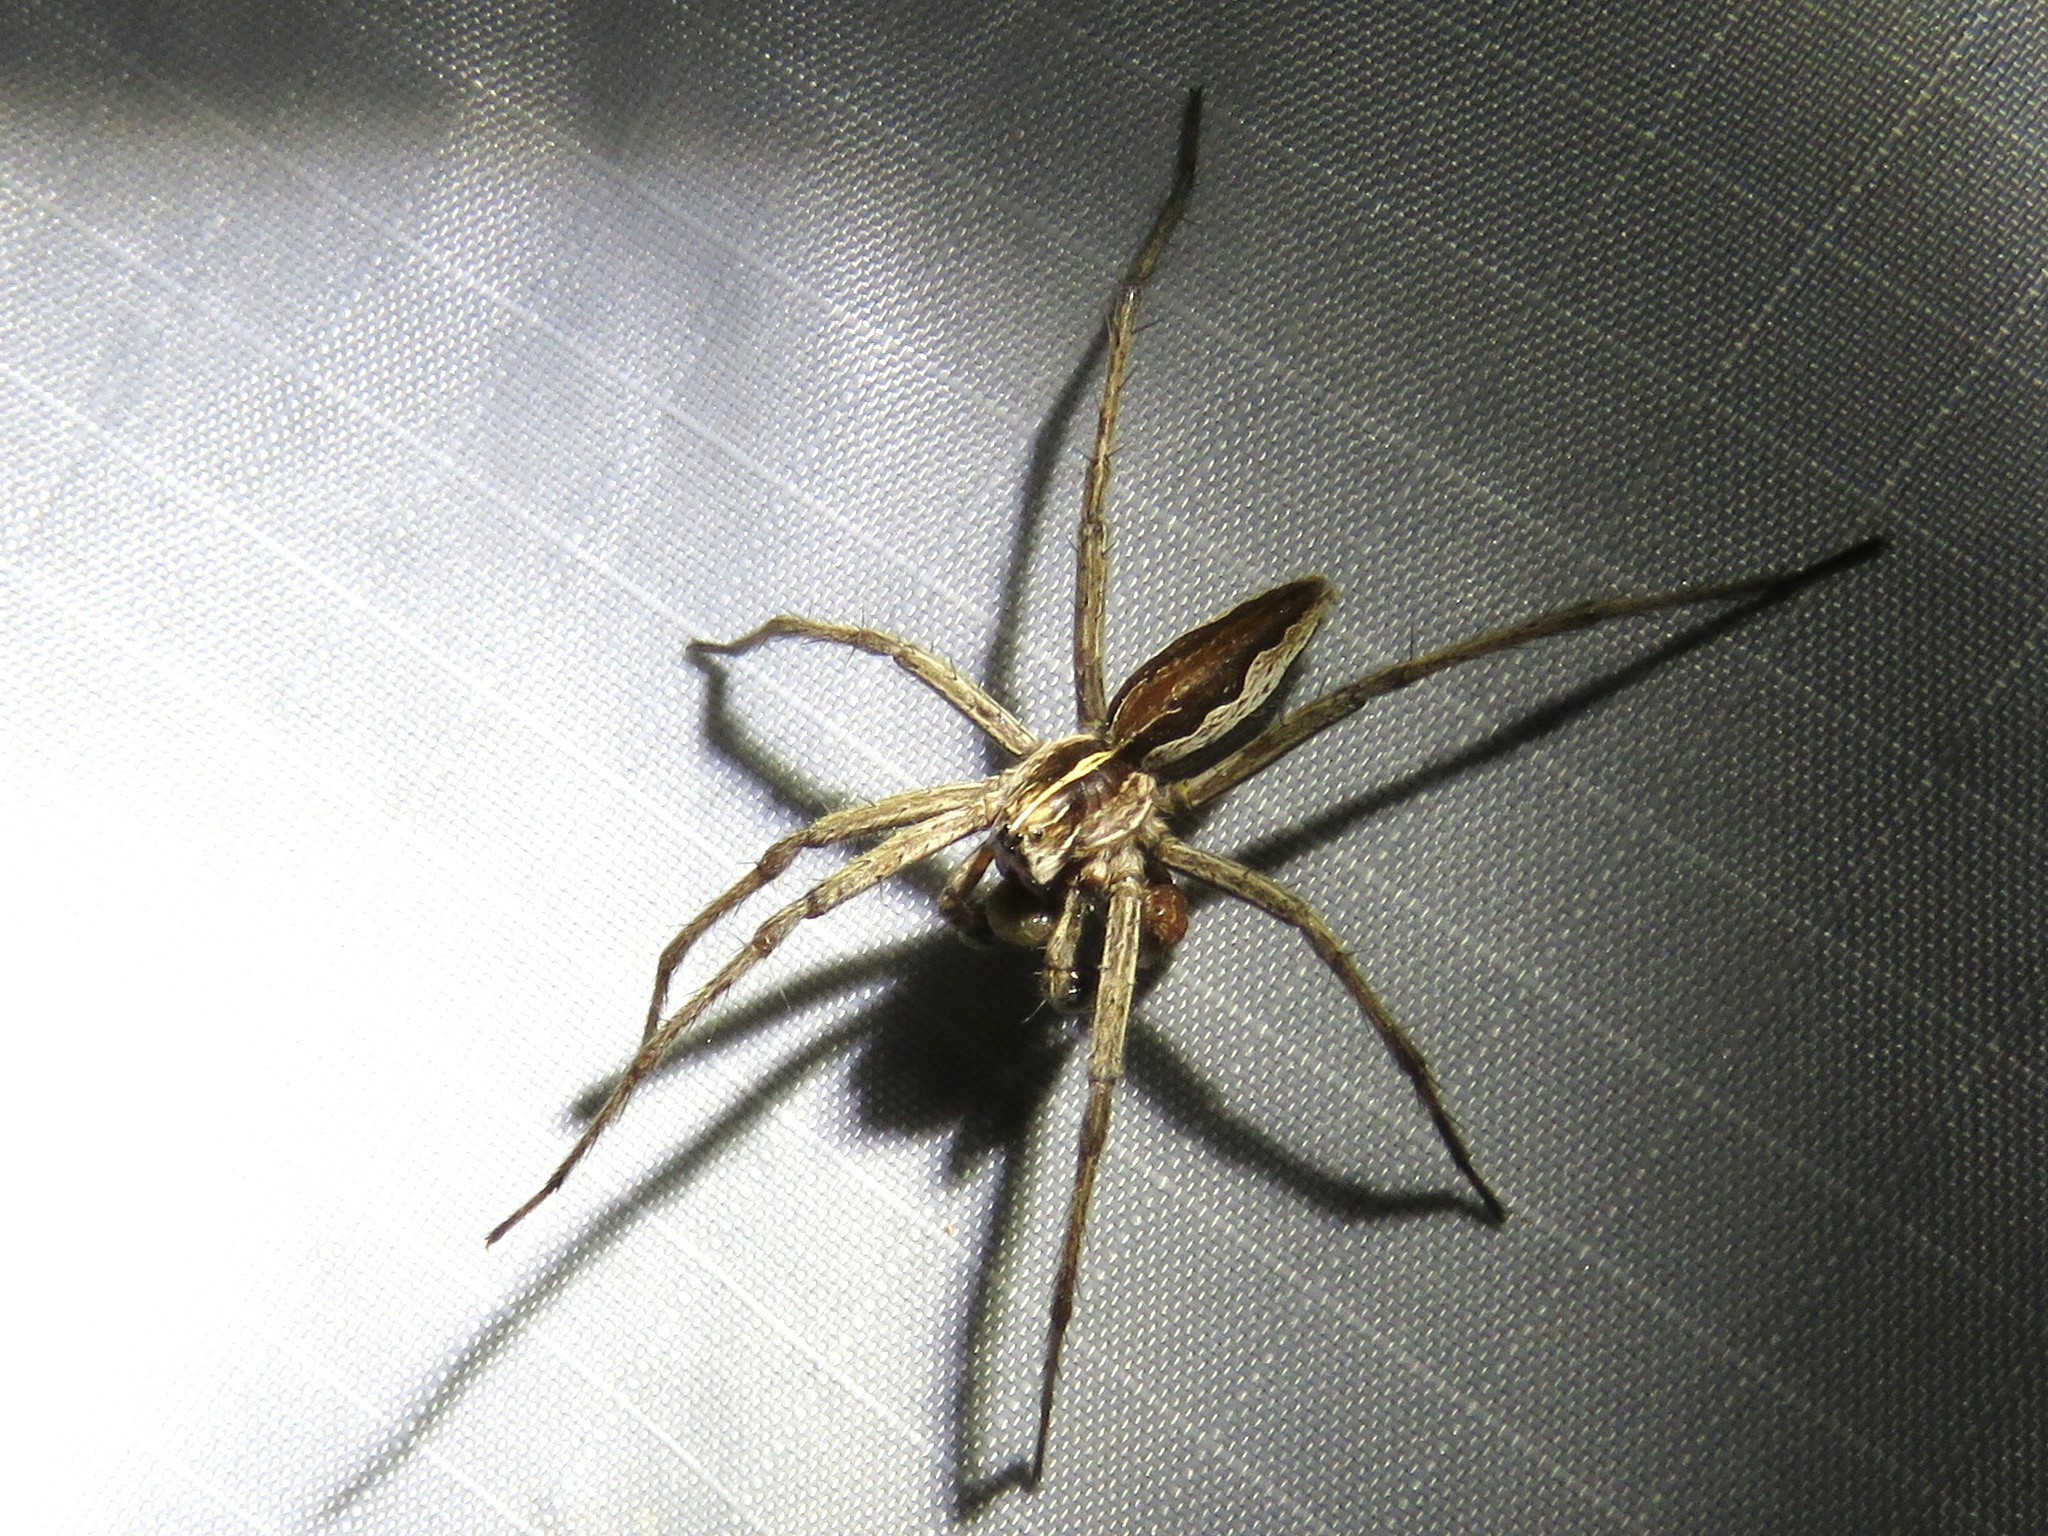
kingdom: Animalia
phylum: Arthropoda
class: Arachnida
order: Araneae
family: Pisauridae
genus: Pisaura
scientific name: Pisaura mirabilis
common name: Tent spider
